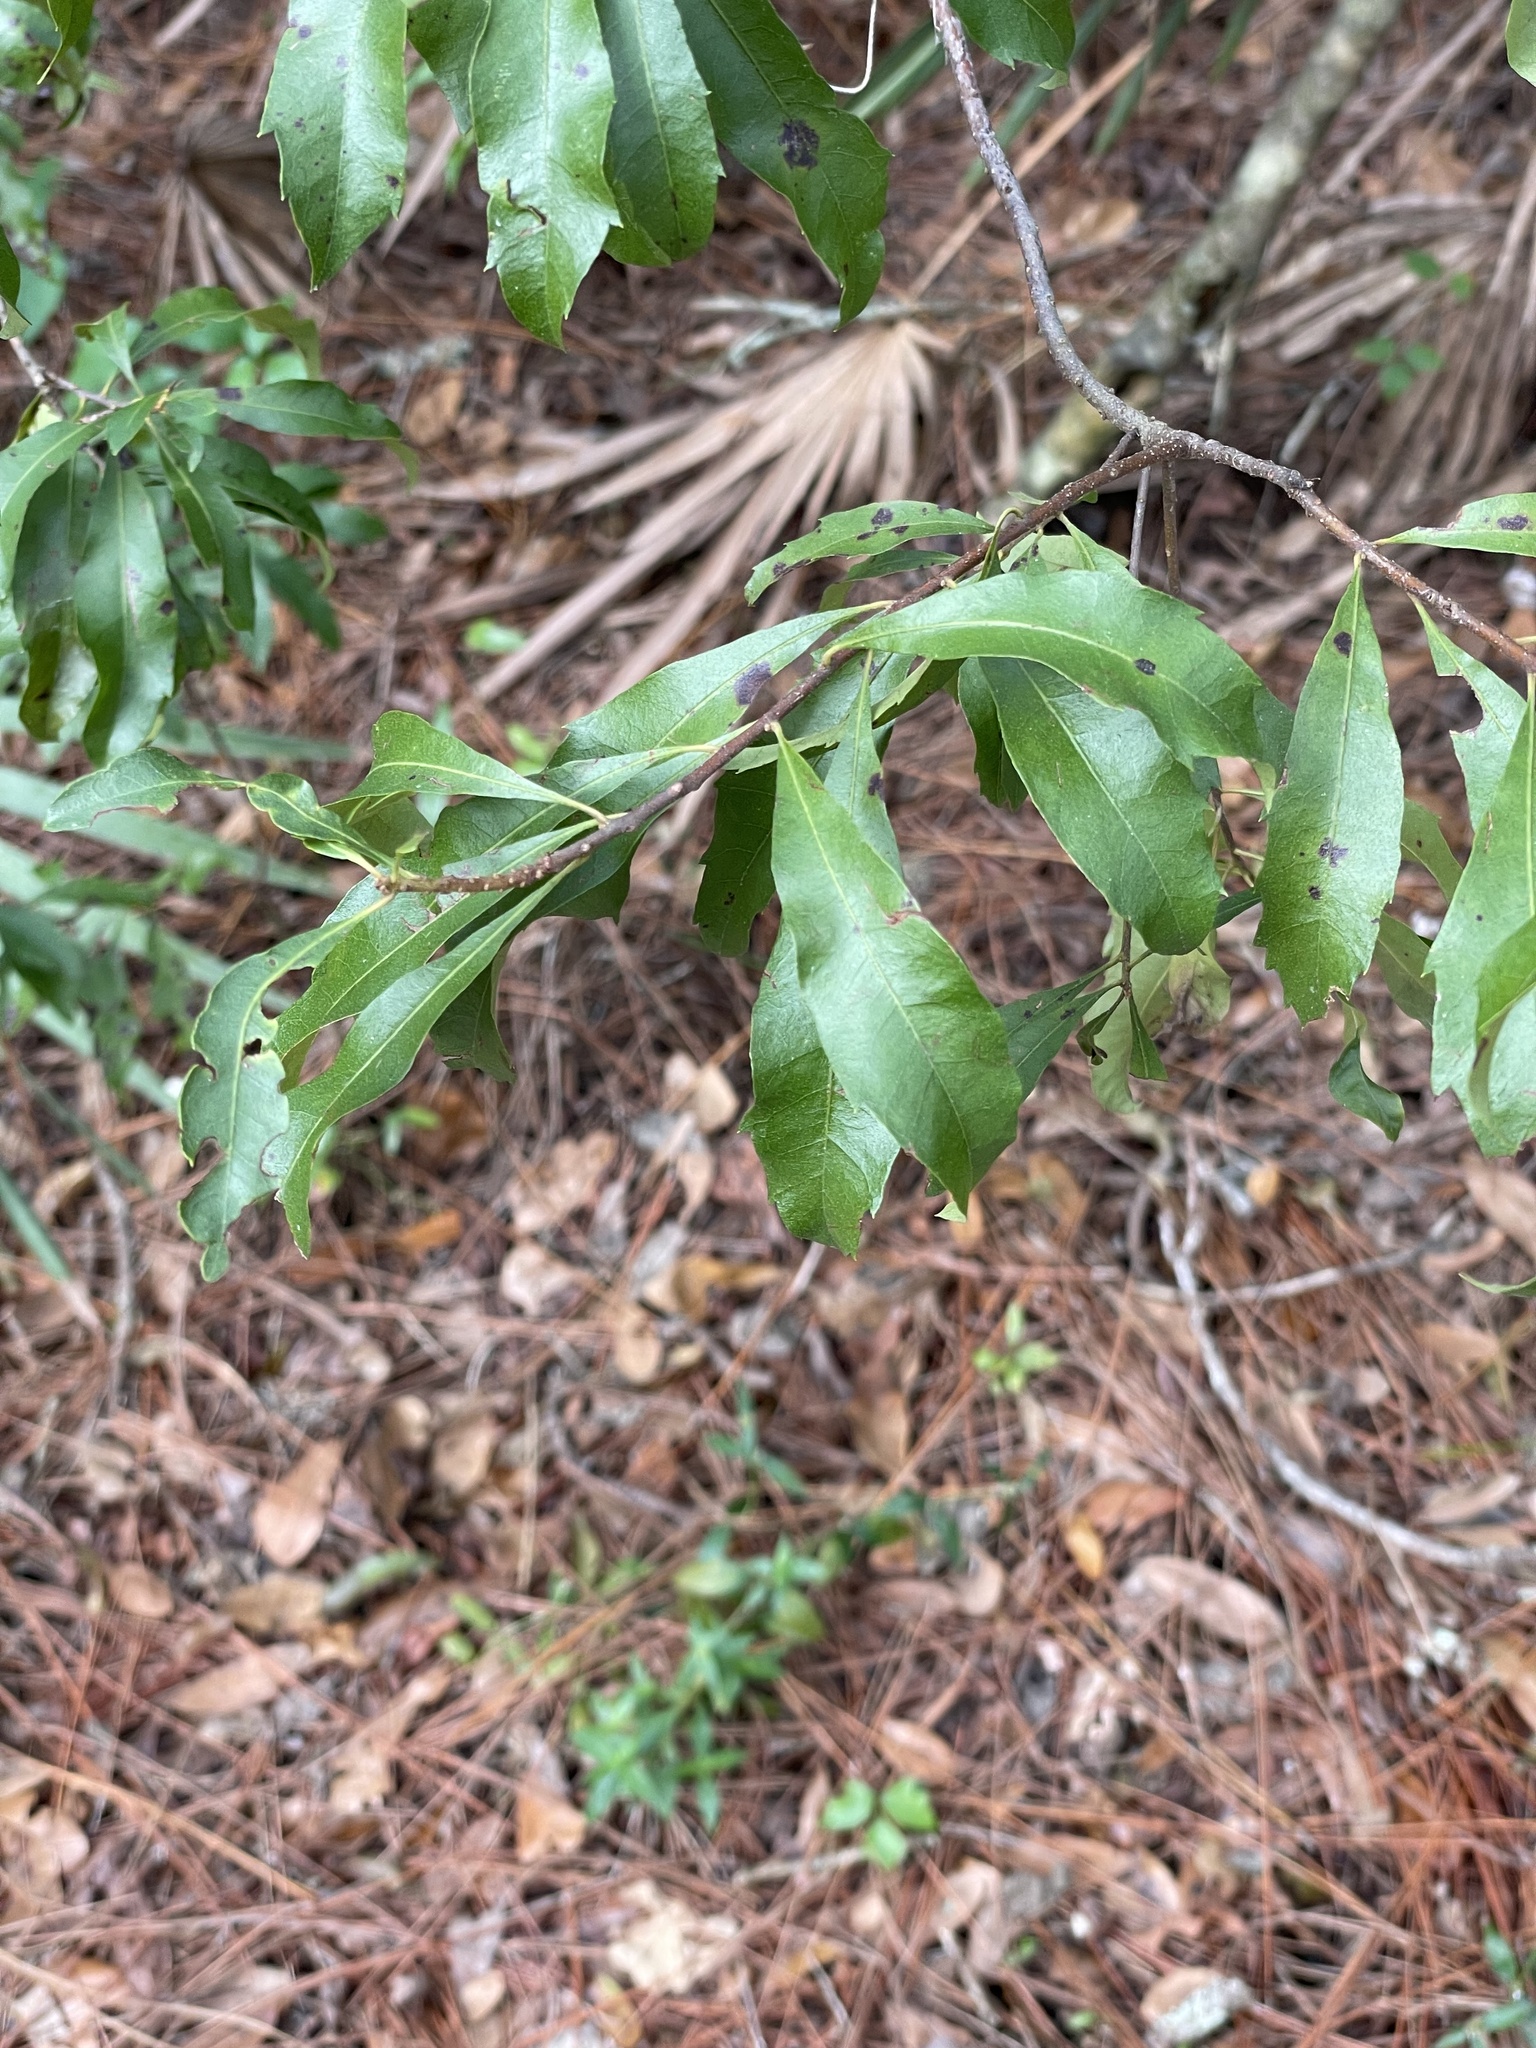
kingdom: Plantae
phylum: Tracheophyta
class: Magnoliopsida
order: Fagales
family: Myricaceae
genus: Morella
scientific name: Morella cerifera
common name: Wax myrtle
